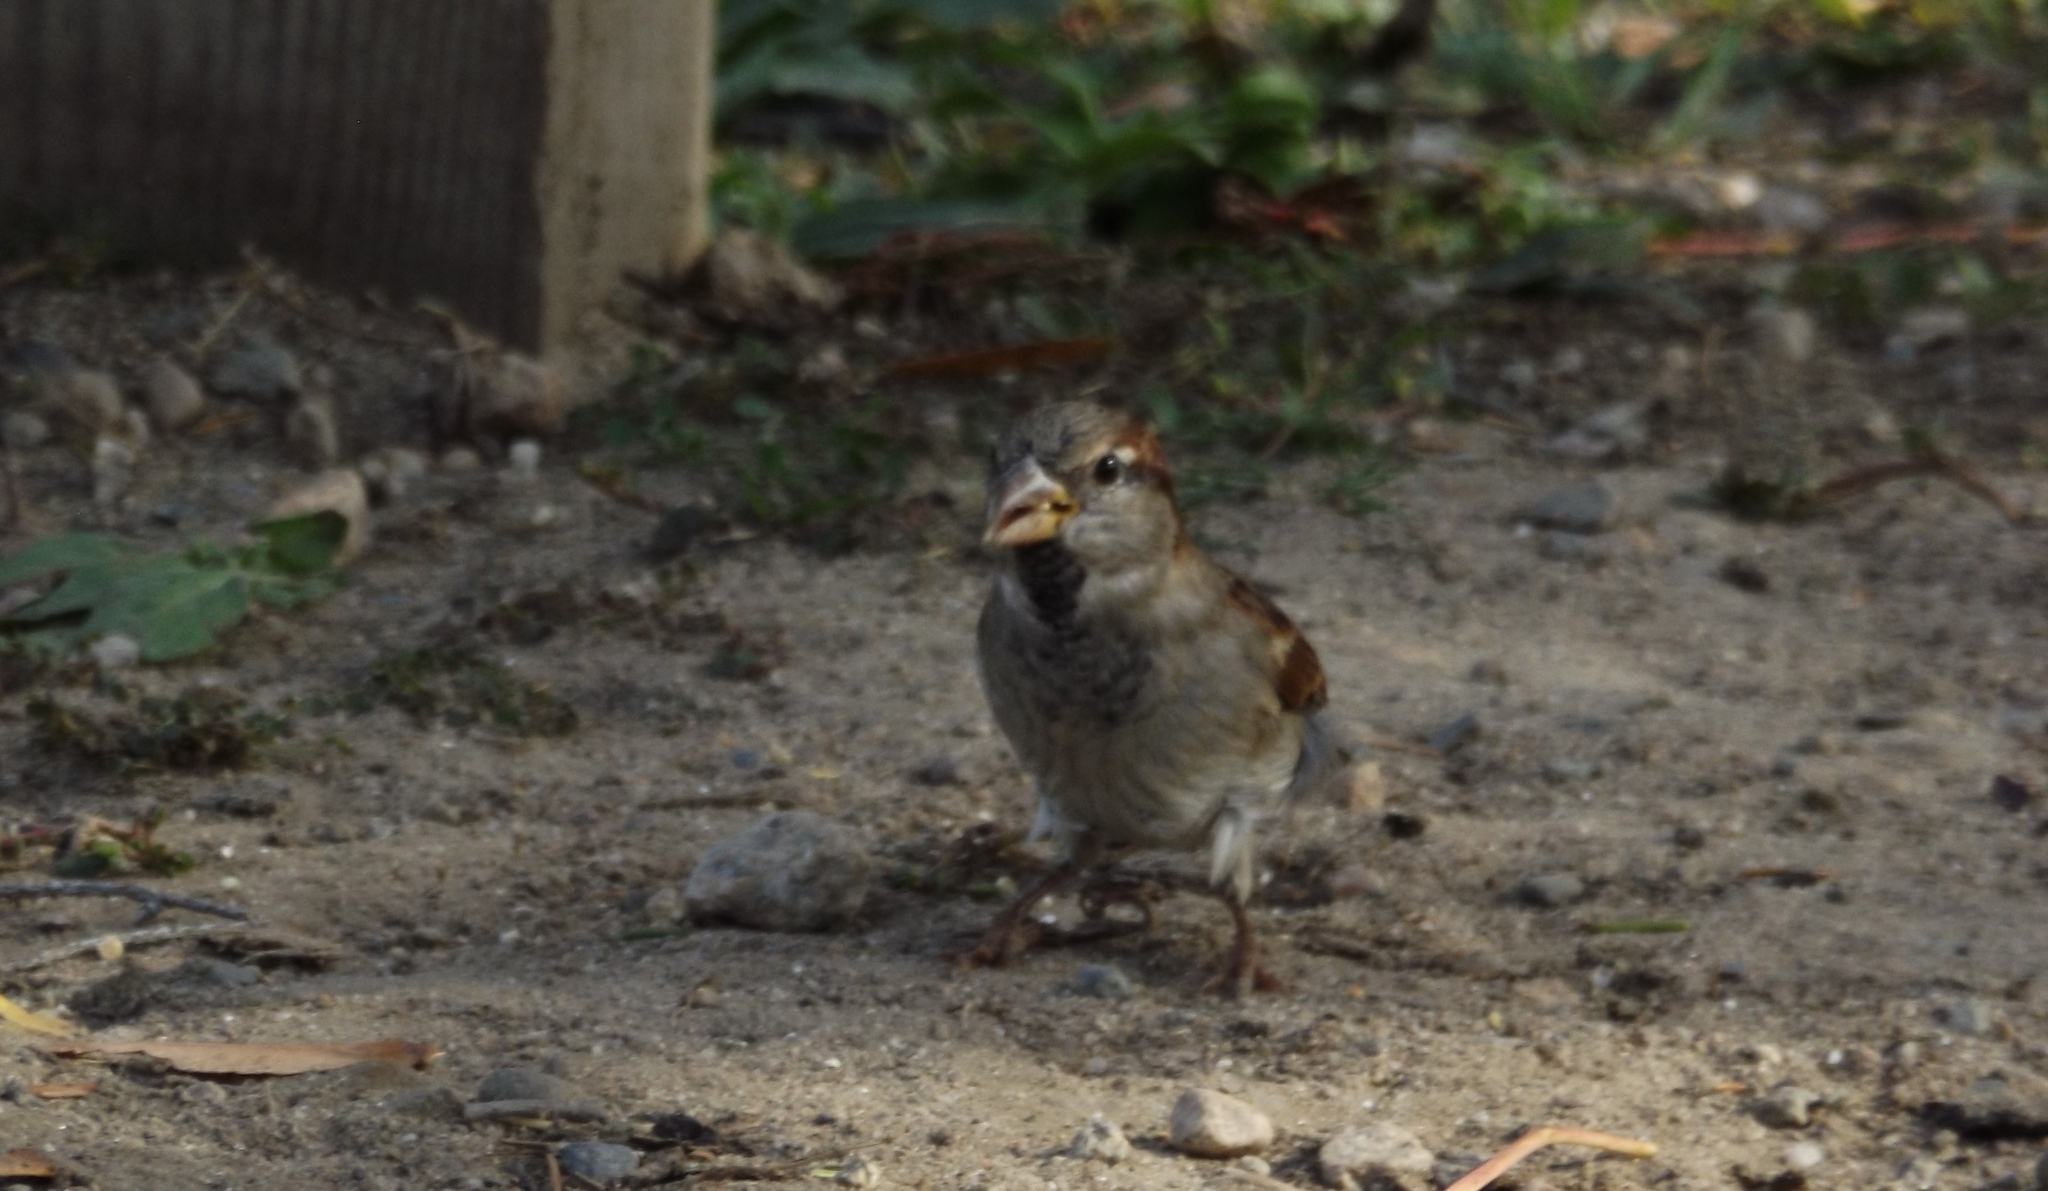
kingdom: Animalia
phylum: Chordata
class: Aves
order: Passeriformes
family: Passeridae
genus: Passer
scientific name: Passer domesticus
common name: House sparrow
